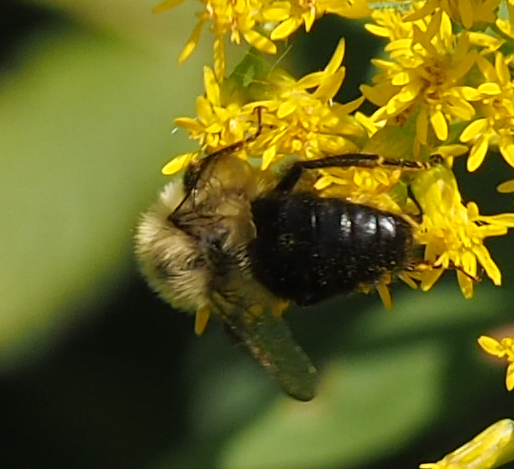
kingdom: Animalia
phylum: Arthropoda
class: Insecta
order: Hymenoptera
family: Apidae
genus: Bombus
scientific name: Bombus impatiens
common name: Common eastern bumble bee
